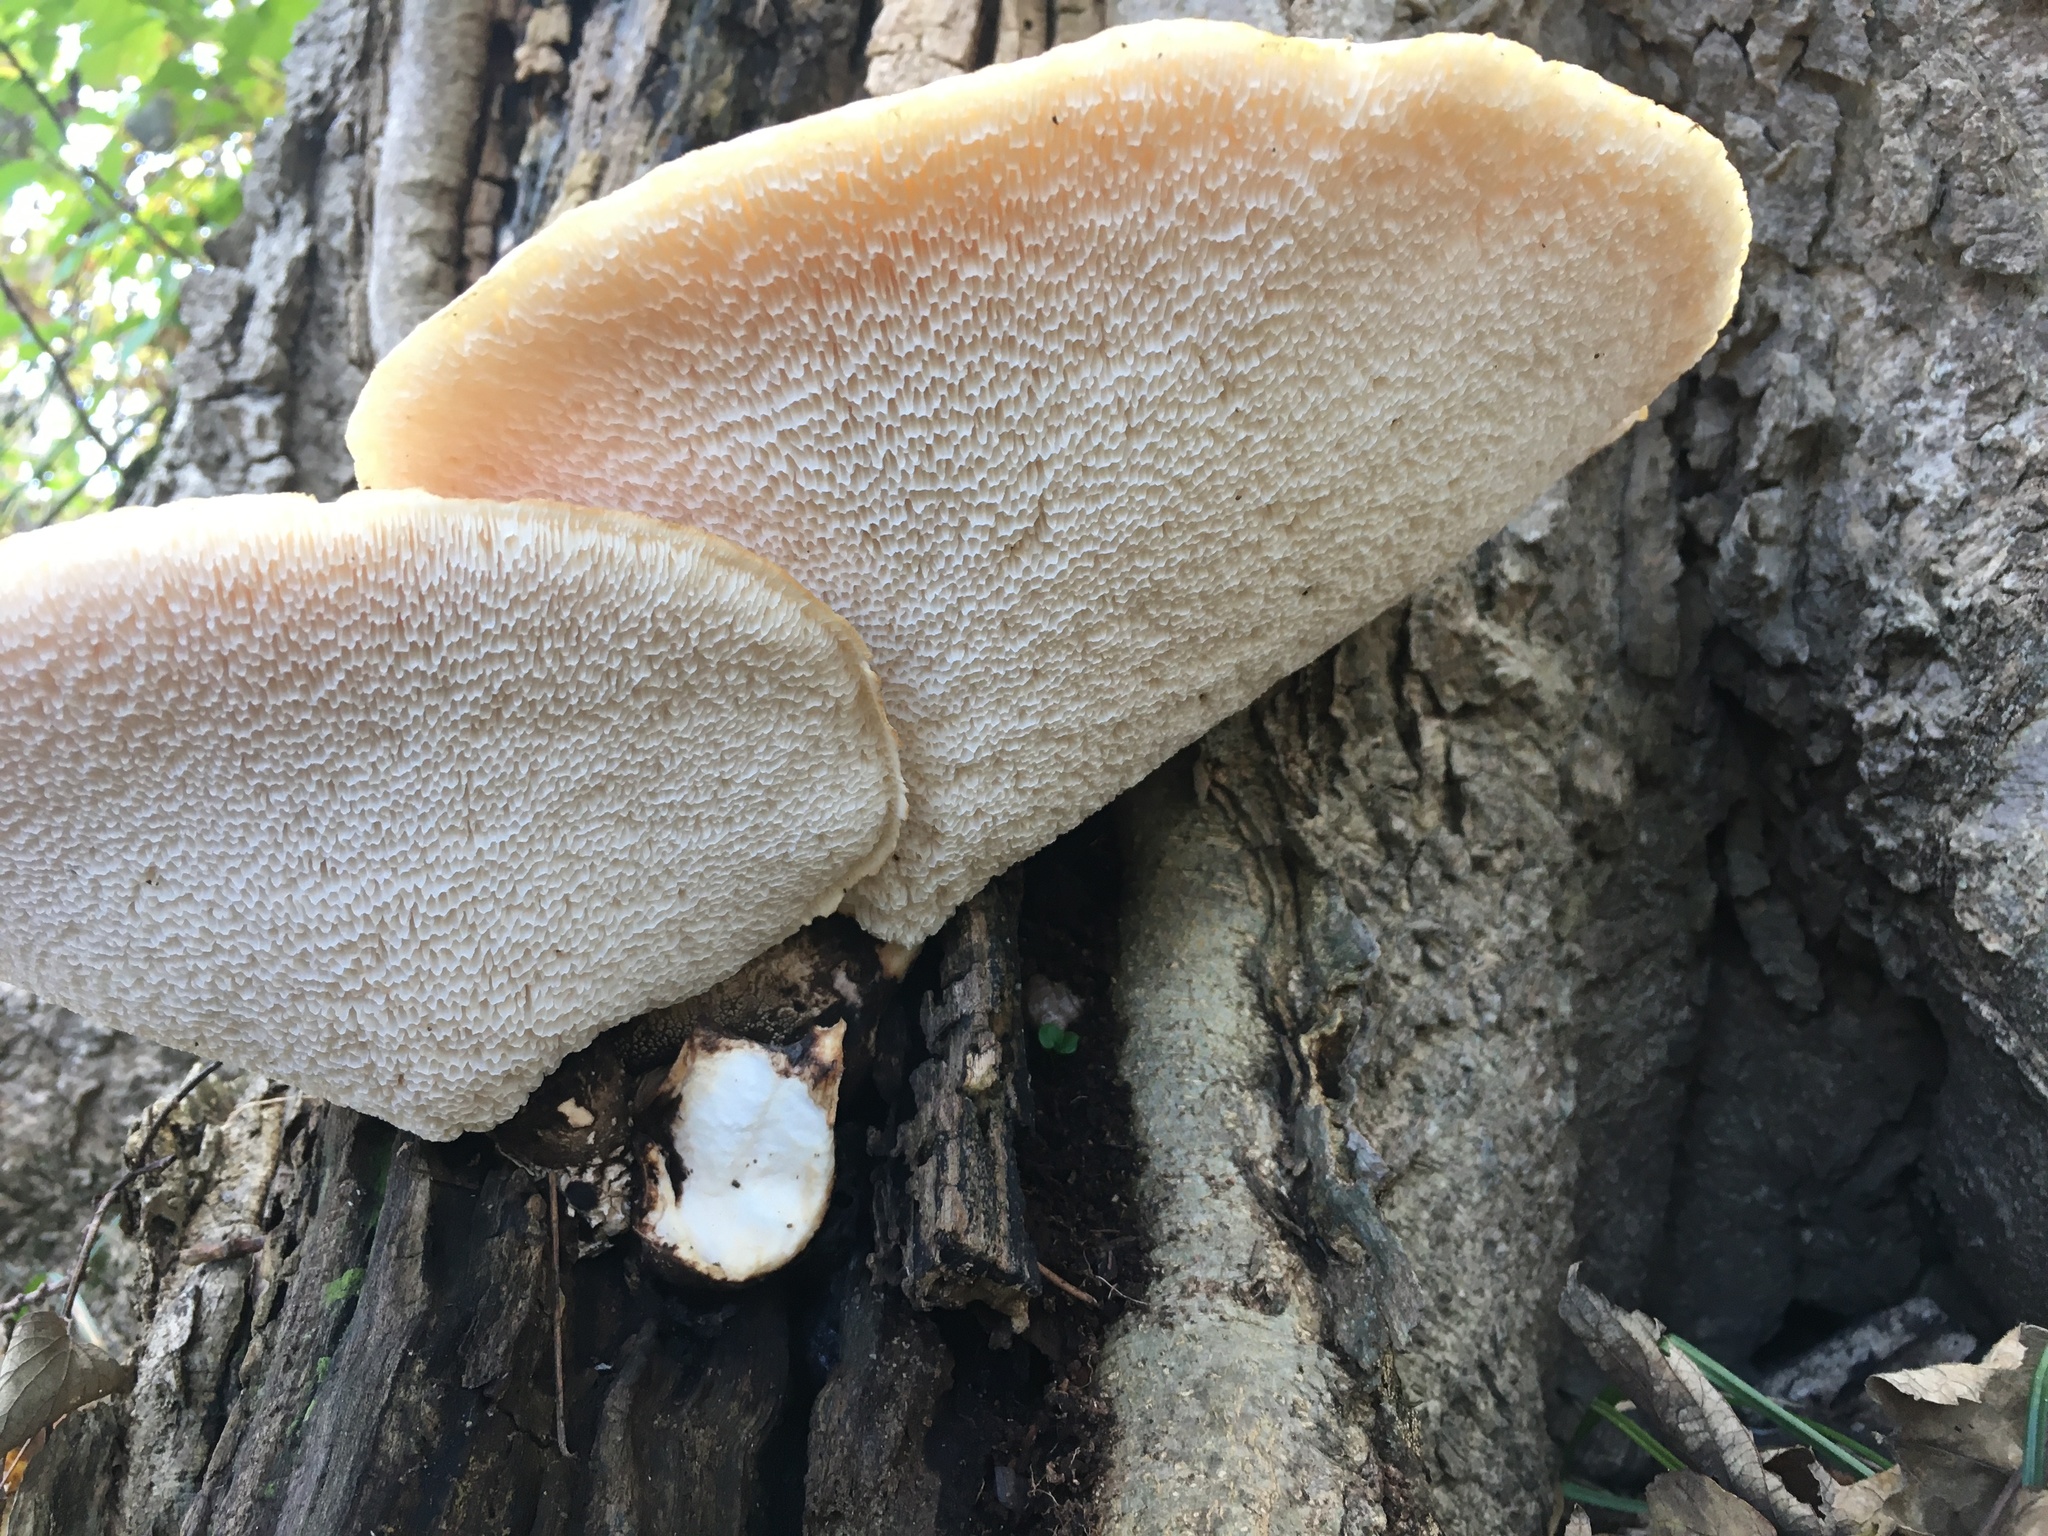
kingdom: Fungi
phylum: Basidiomycota
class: Agaricomycetes
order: Polyporales
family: Polyporaceae
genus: Cerioporus
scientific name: Cerioporus squamosus
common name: Dryad's saddle
